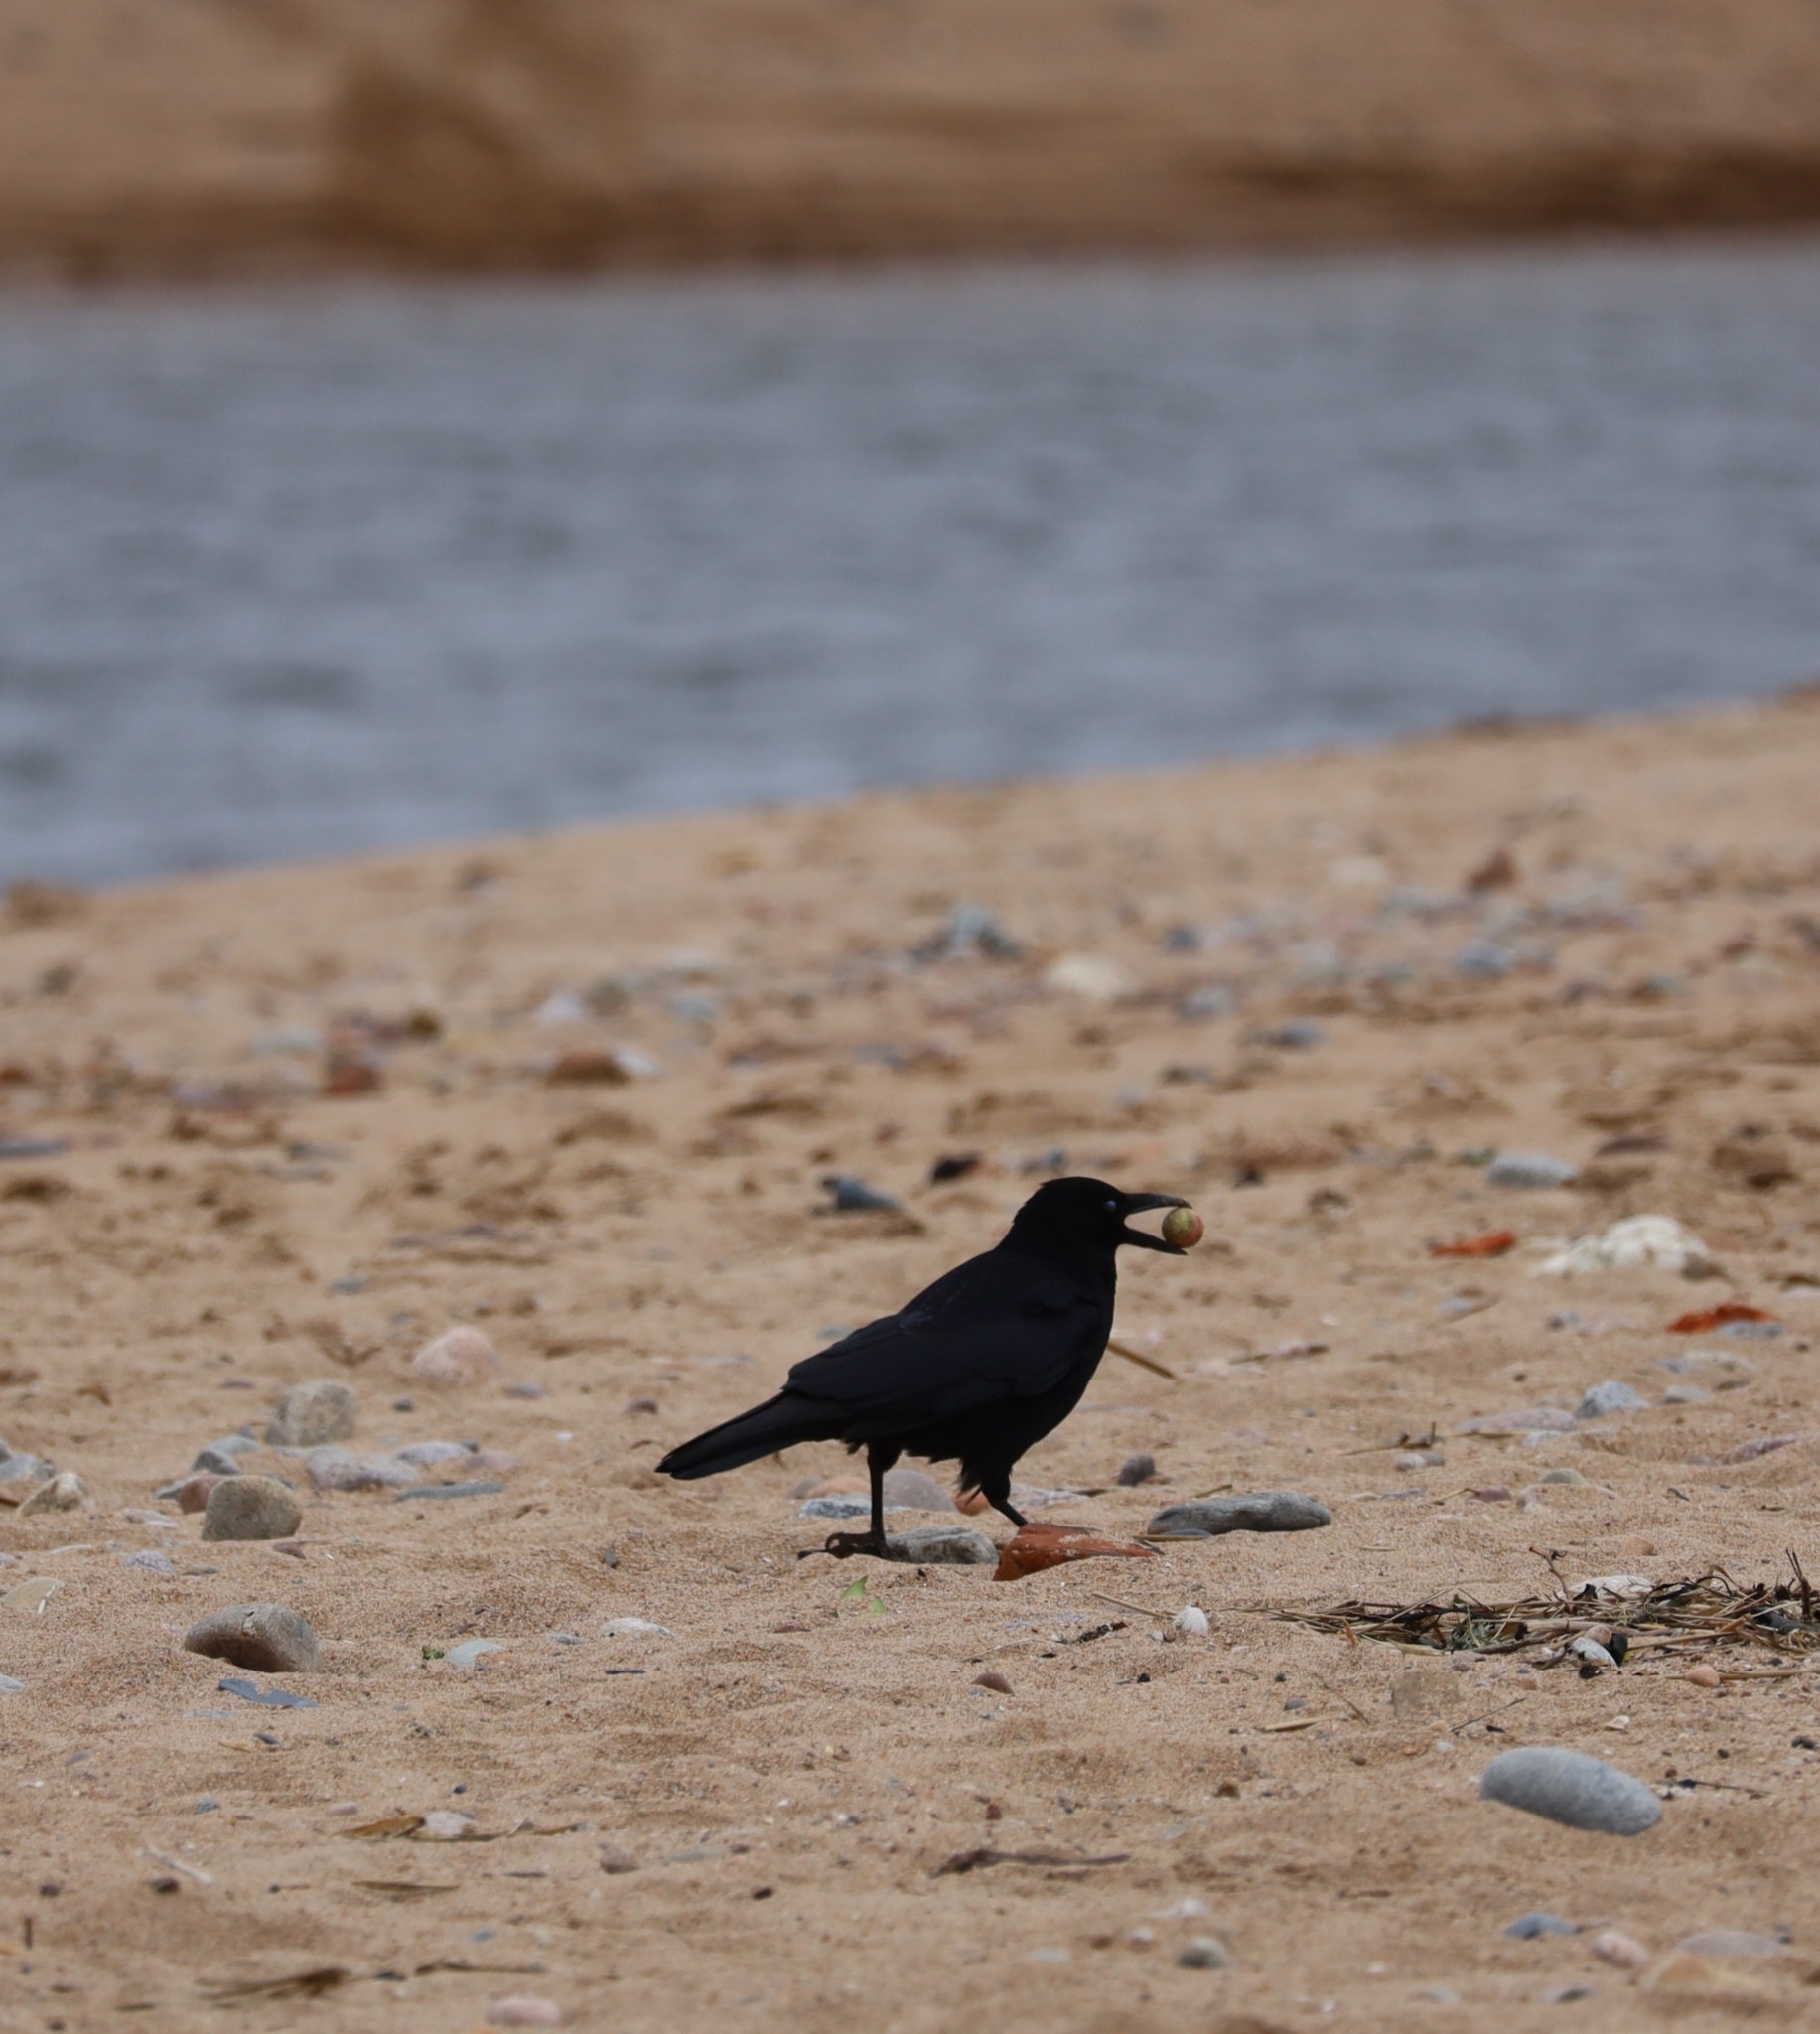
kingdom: Animalia
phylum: Chordata
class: Aves
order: Passeriformes
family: Corvidae
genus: Corvus
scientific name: Corvus corone
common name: Carrion crow
